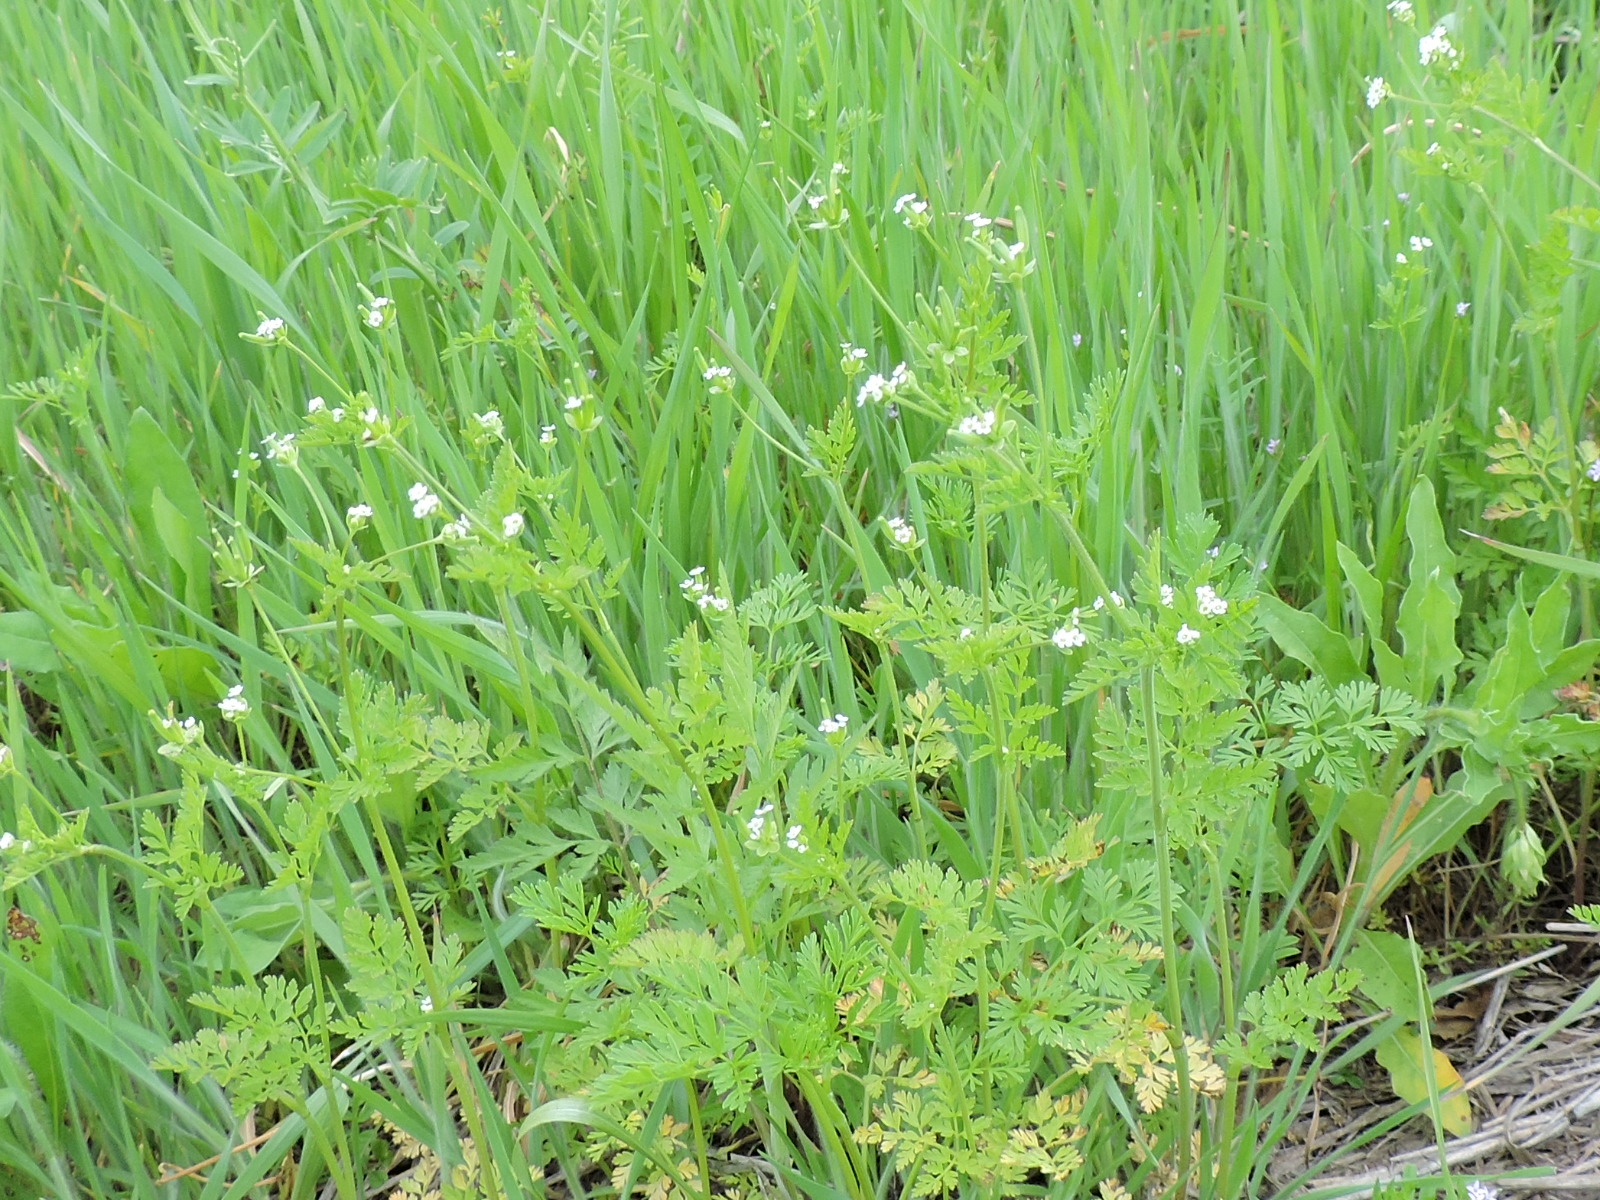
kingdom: Plantae
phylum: Tracheophyta
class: Magnoliopsida
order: Apiales
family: Apiaceae
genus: Chaerophyllum
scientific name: Chaerophyllum tainturieri
